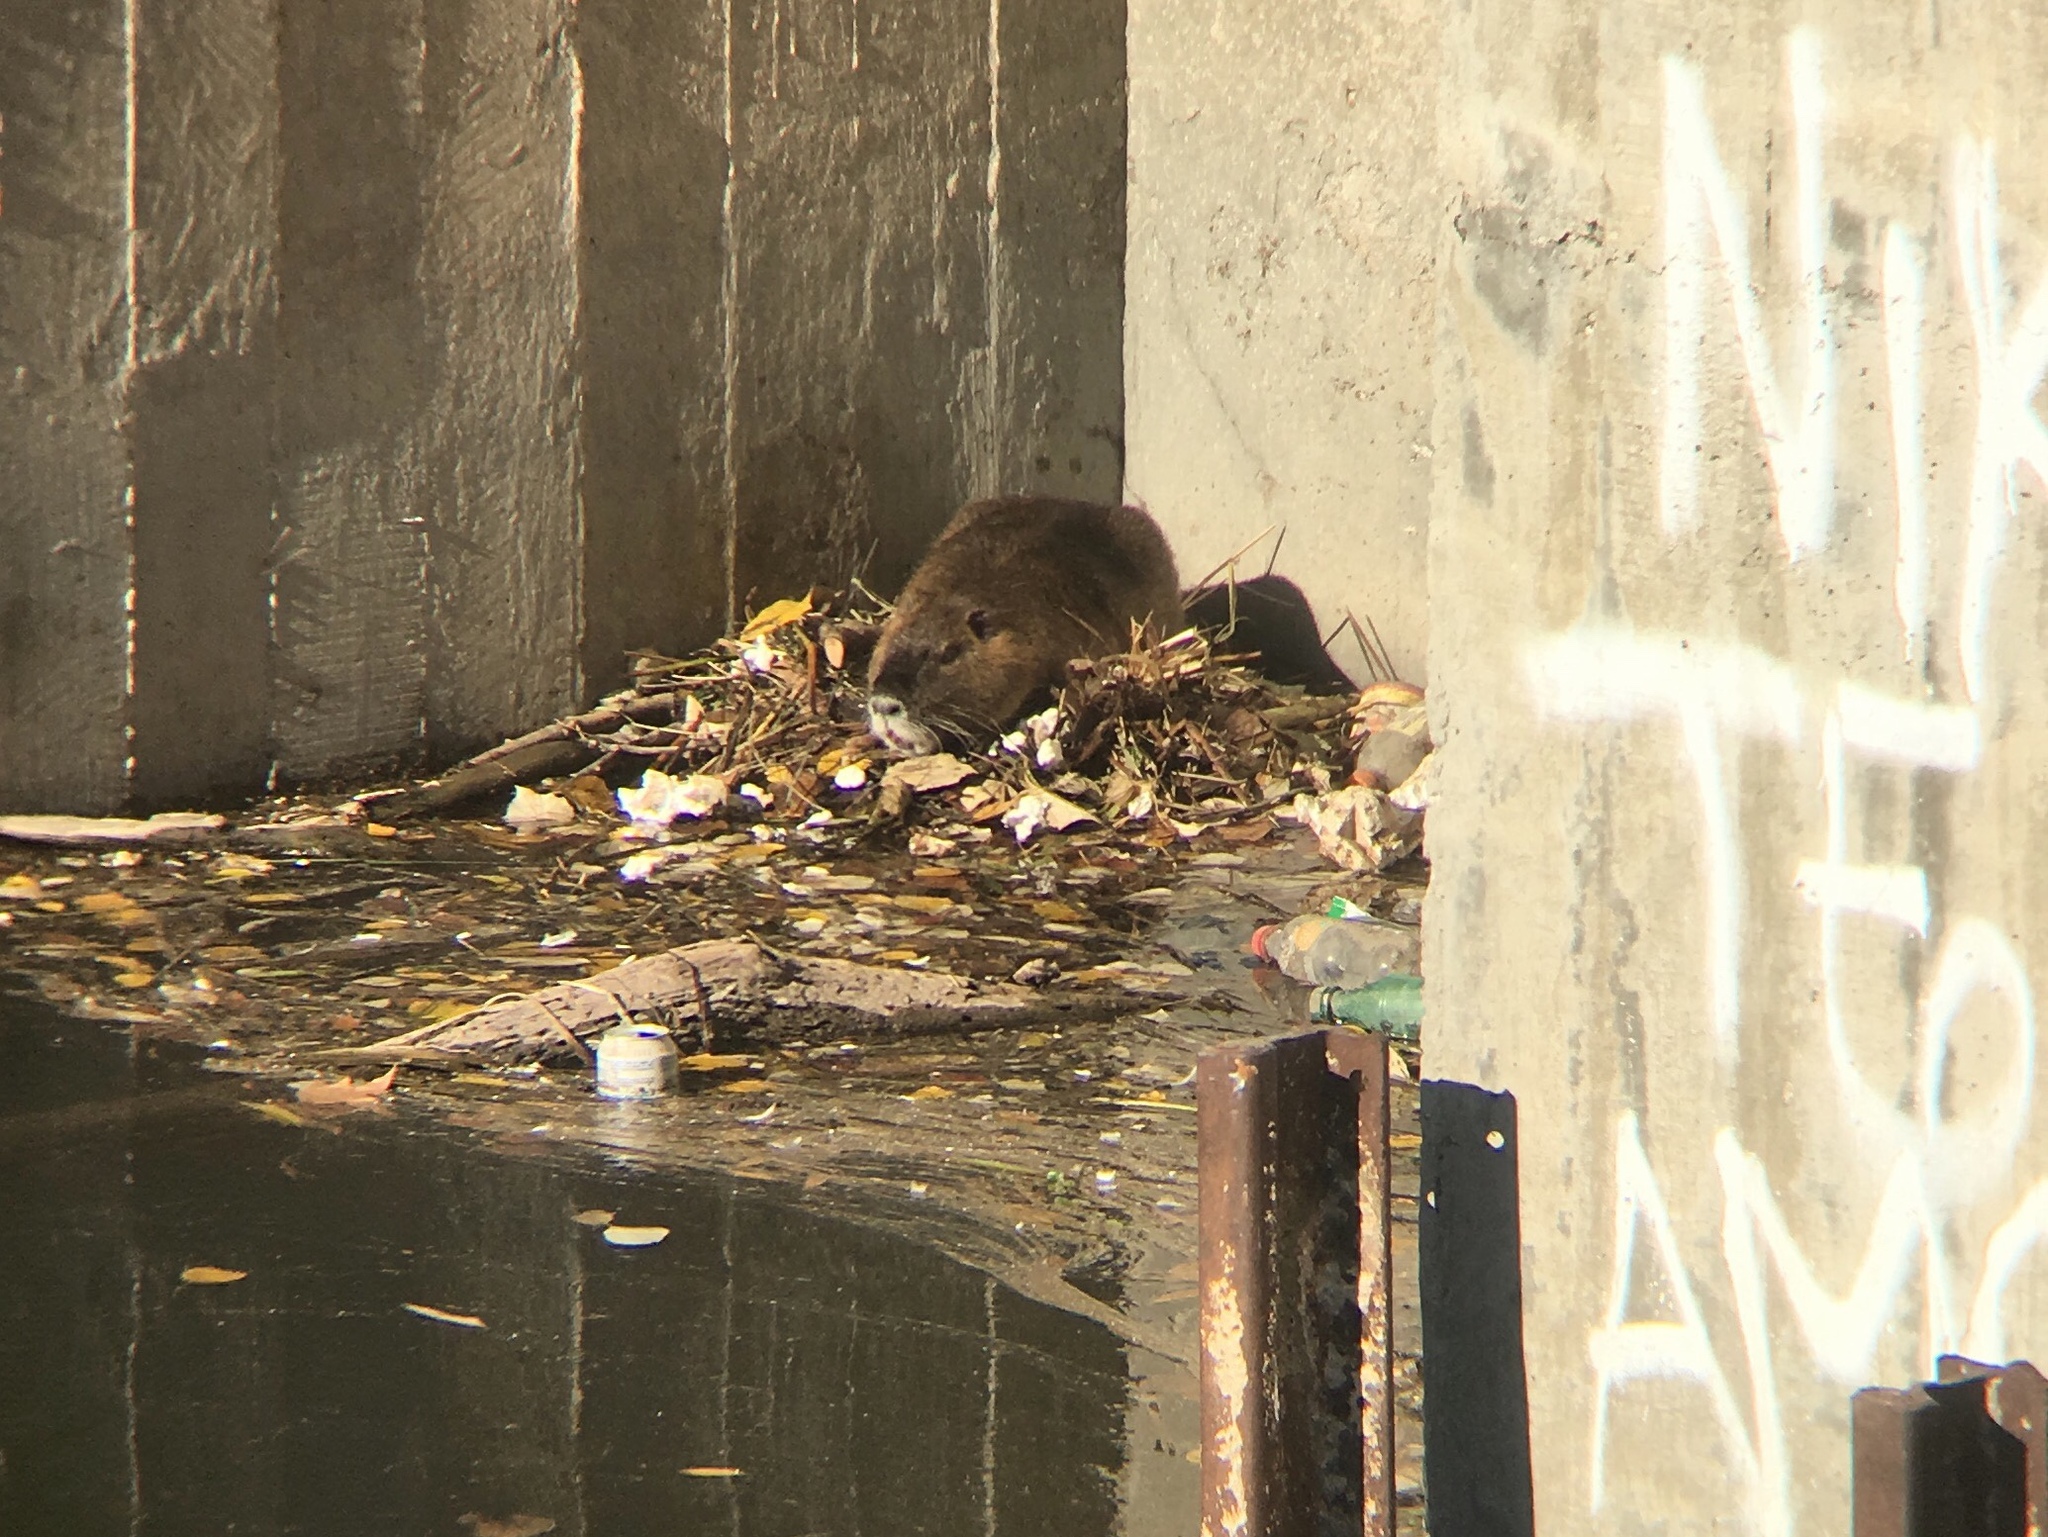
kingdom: Animalia
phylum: Chordata
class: Mammalia
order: Rodentia
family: Myocastoridae
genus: Myocastor
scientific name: Myocastor coypus
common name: Coypu
